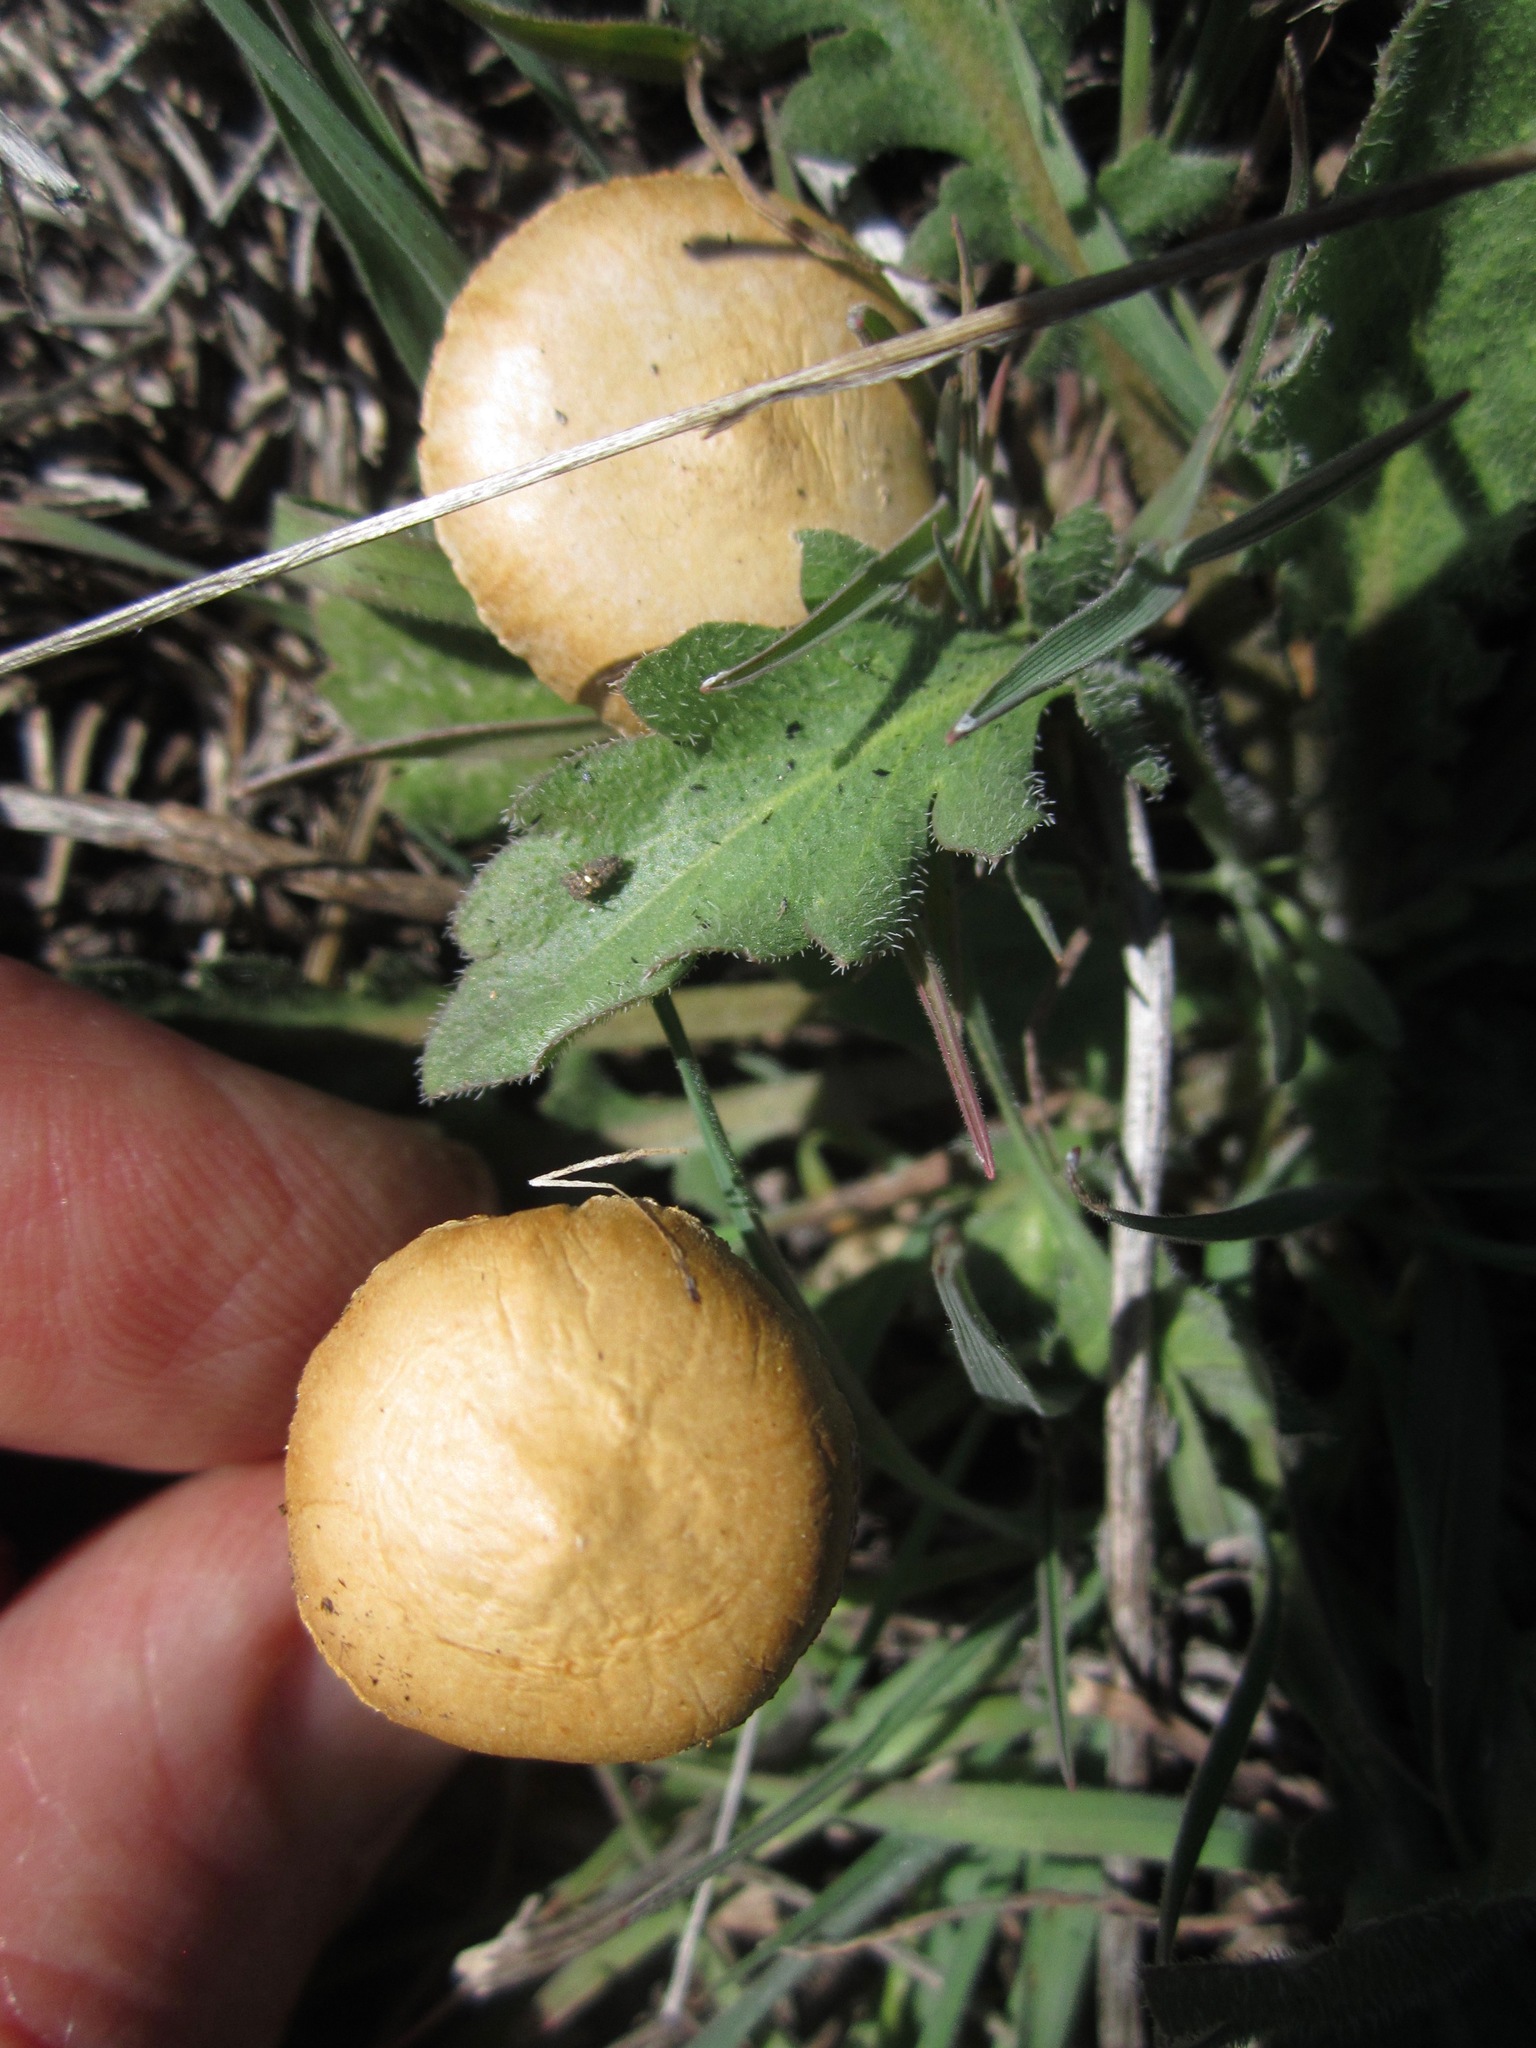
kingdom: Fungi
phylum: Basidiomycota
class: Agaricomycetes
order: Agaricales
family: Strophariaceae
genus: Agrocybe
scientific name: Agrocybe pediades
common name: Common fieldcap
